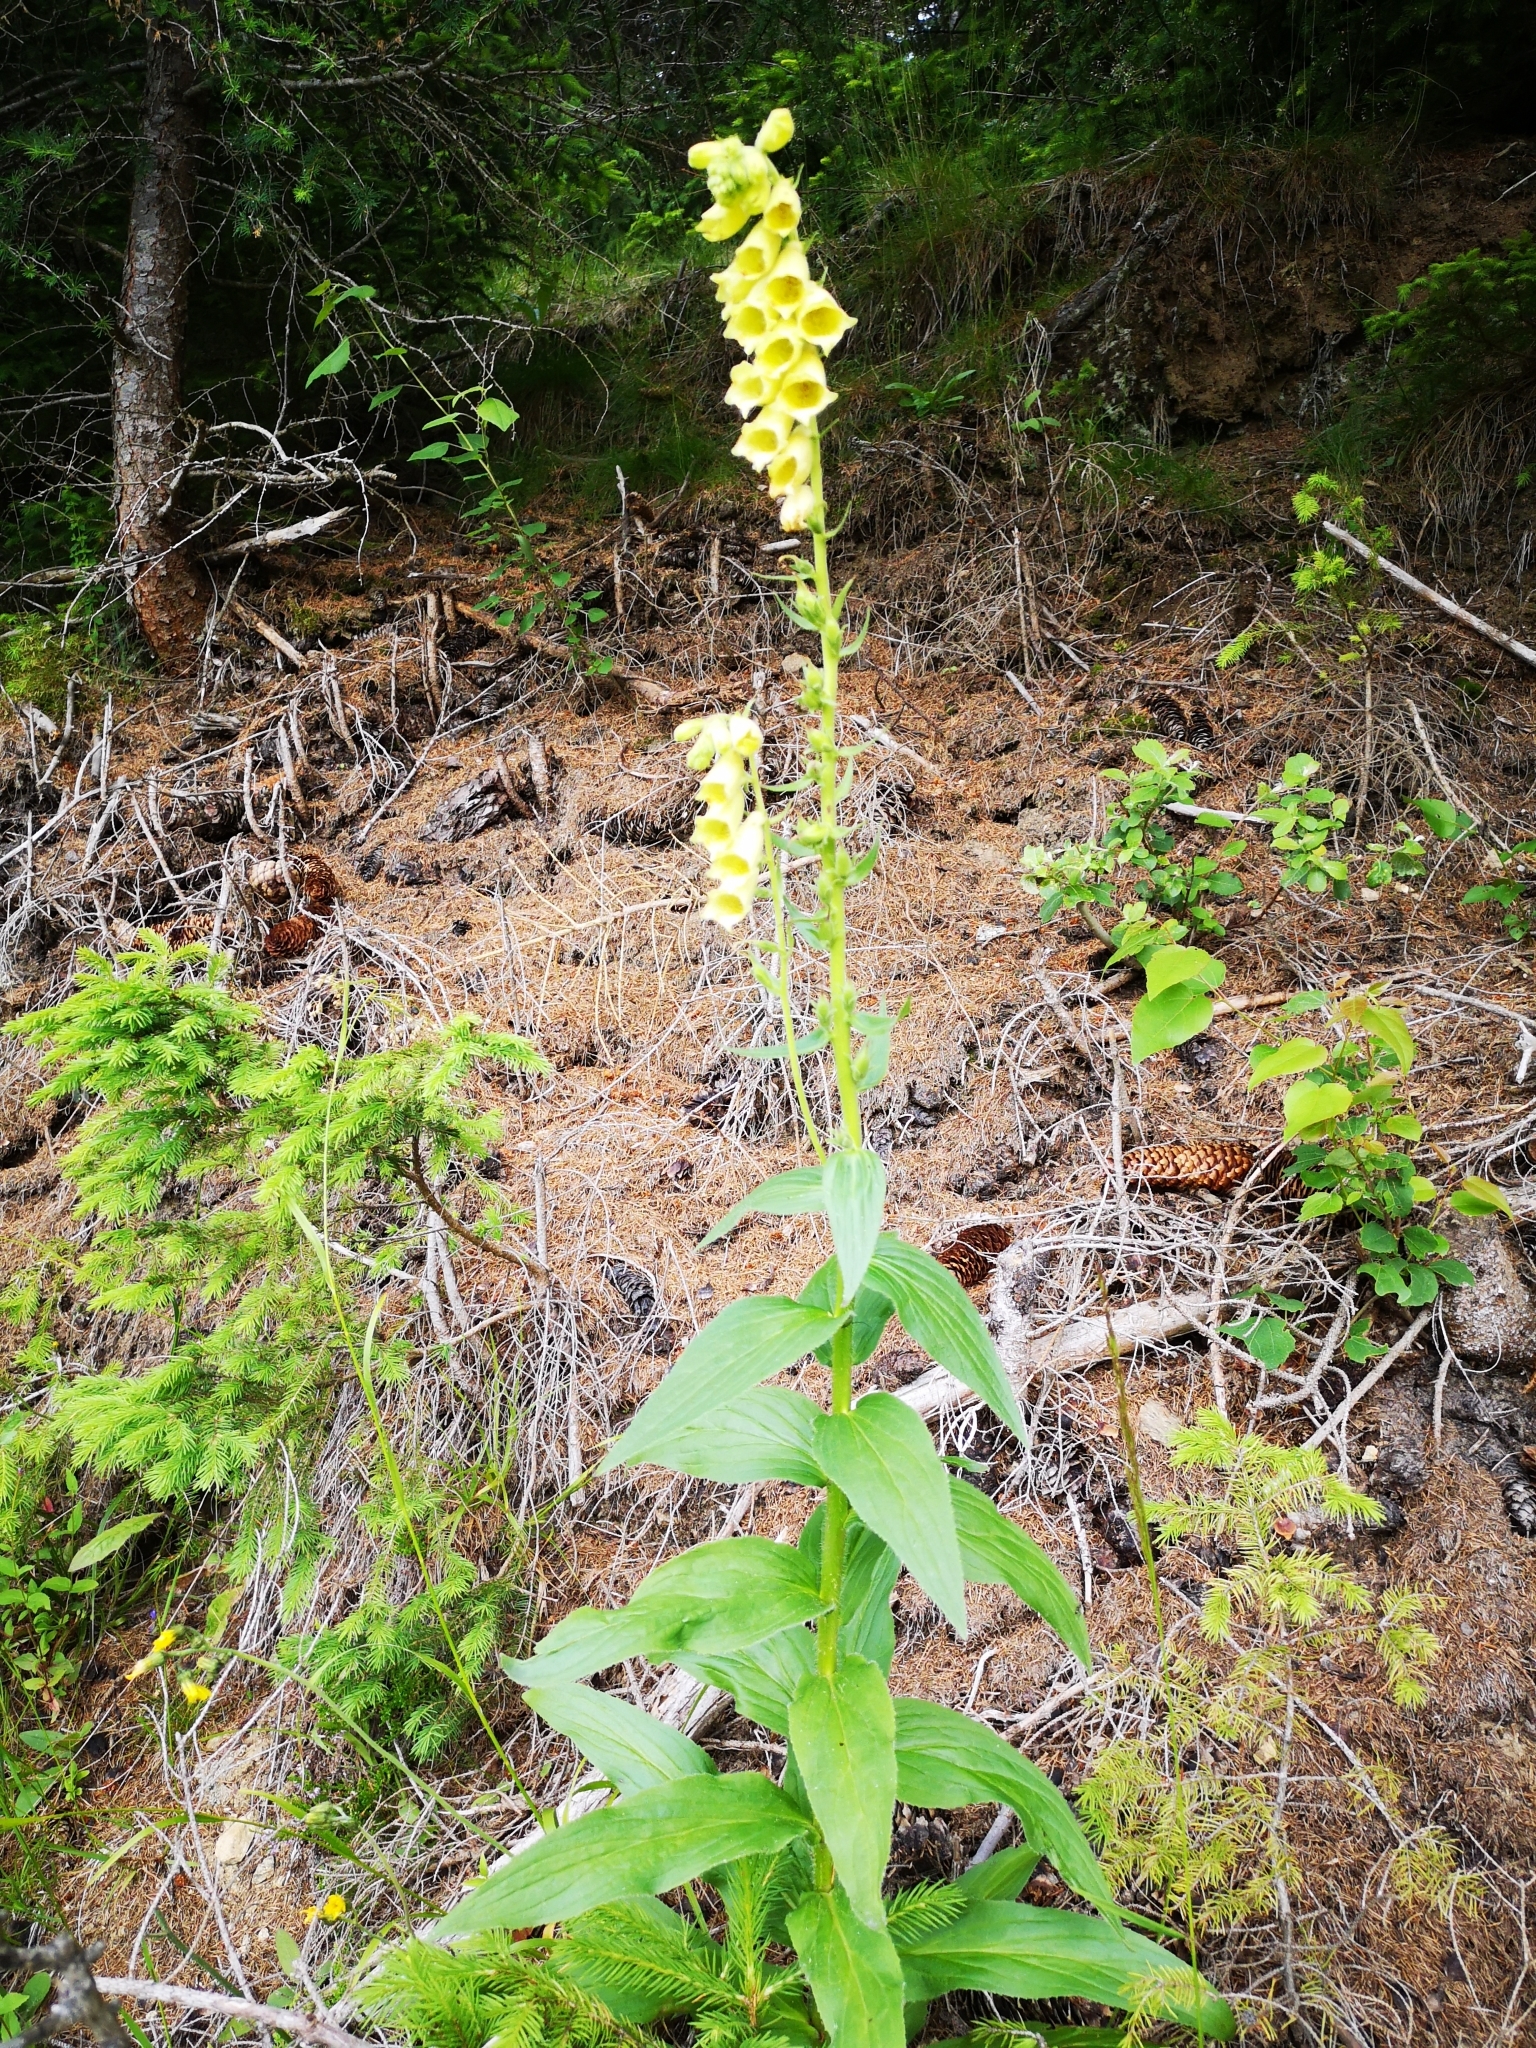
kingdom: Plantae
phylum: Tracheophyta
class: Magnoliopsida
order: Lamiales
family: Plantaginaceae
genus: Digitalis
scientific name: Digitalis grandiflora
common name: Yellow foxglove
